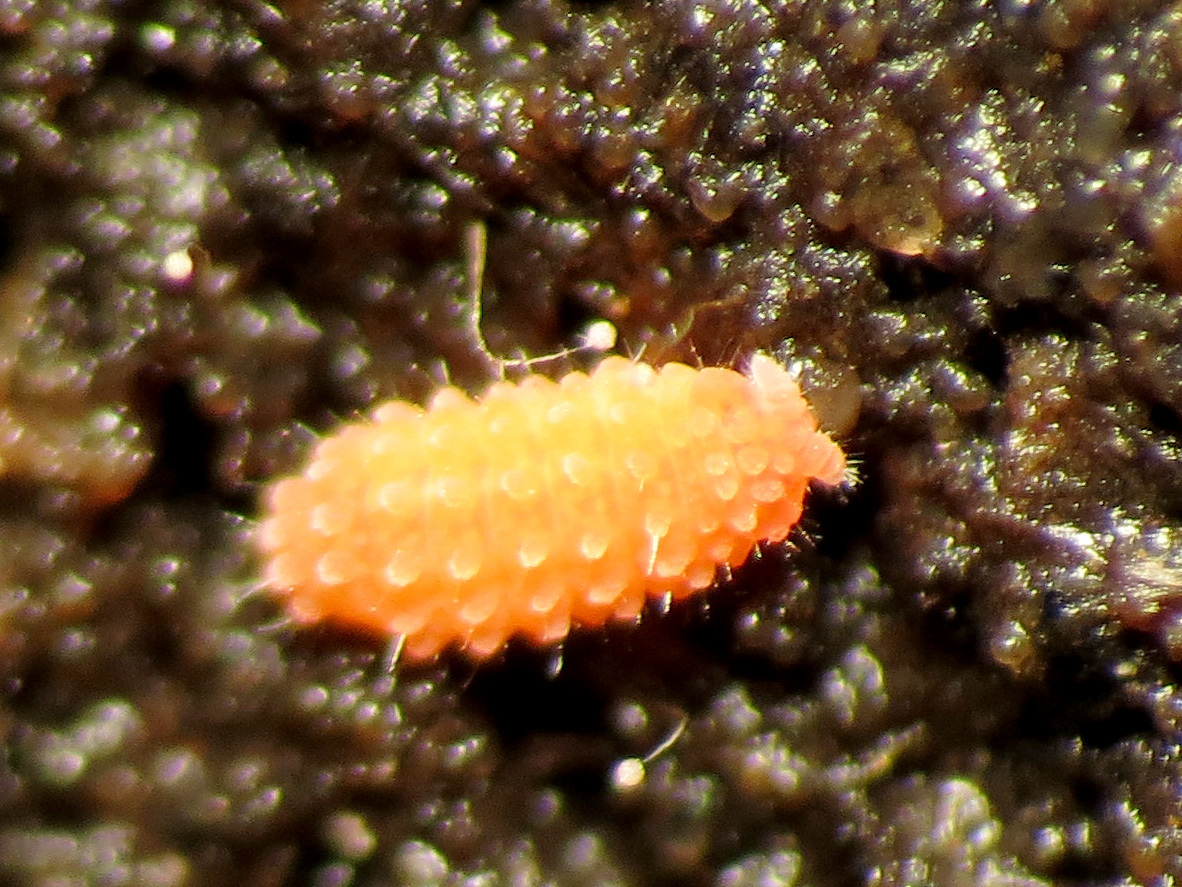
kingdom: Animalia
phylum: Arthropoda
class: Collembola
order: Poduromorpha
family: Neanuridae
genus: Vitronura
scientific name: Vitronura giselae
